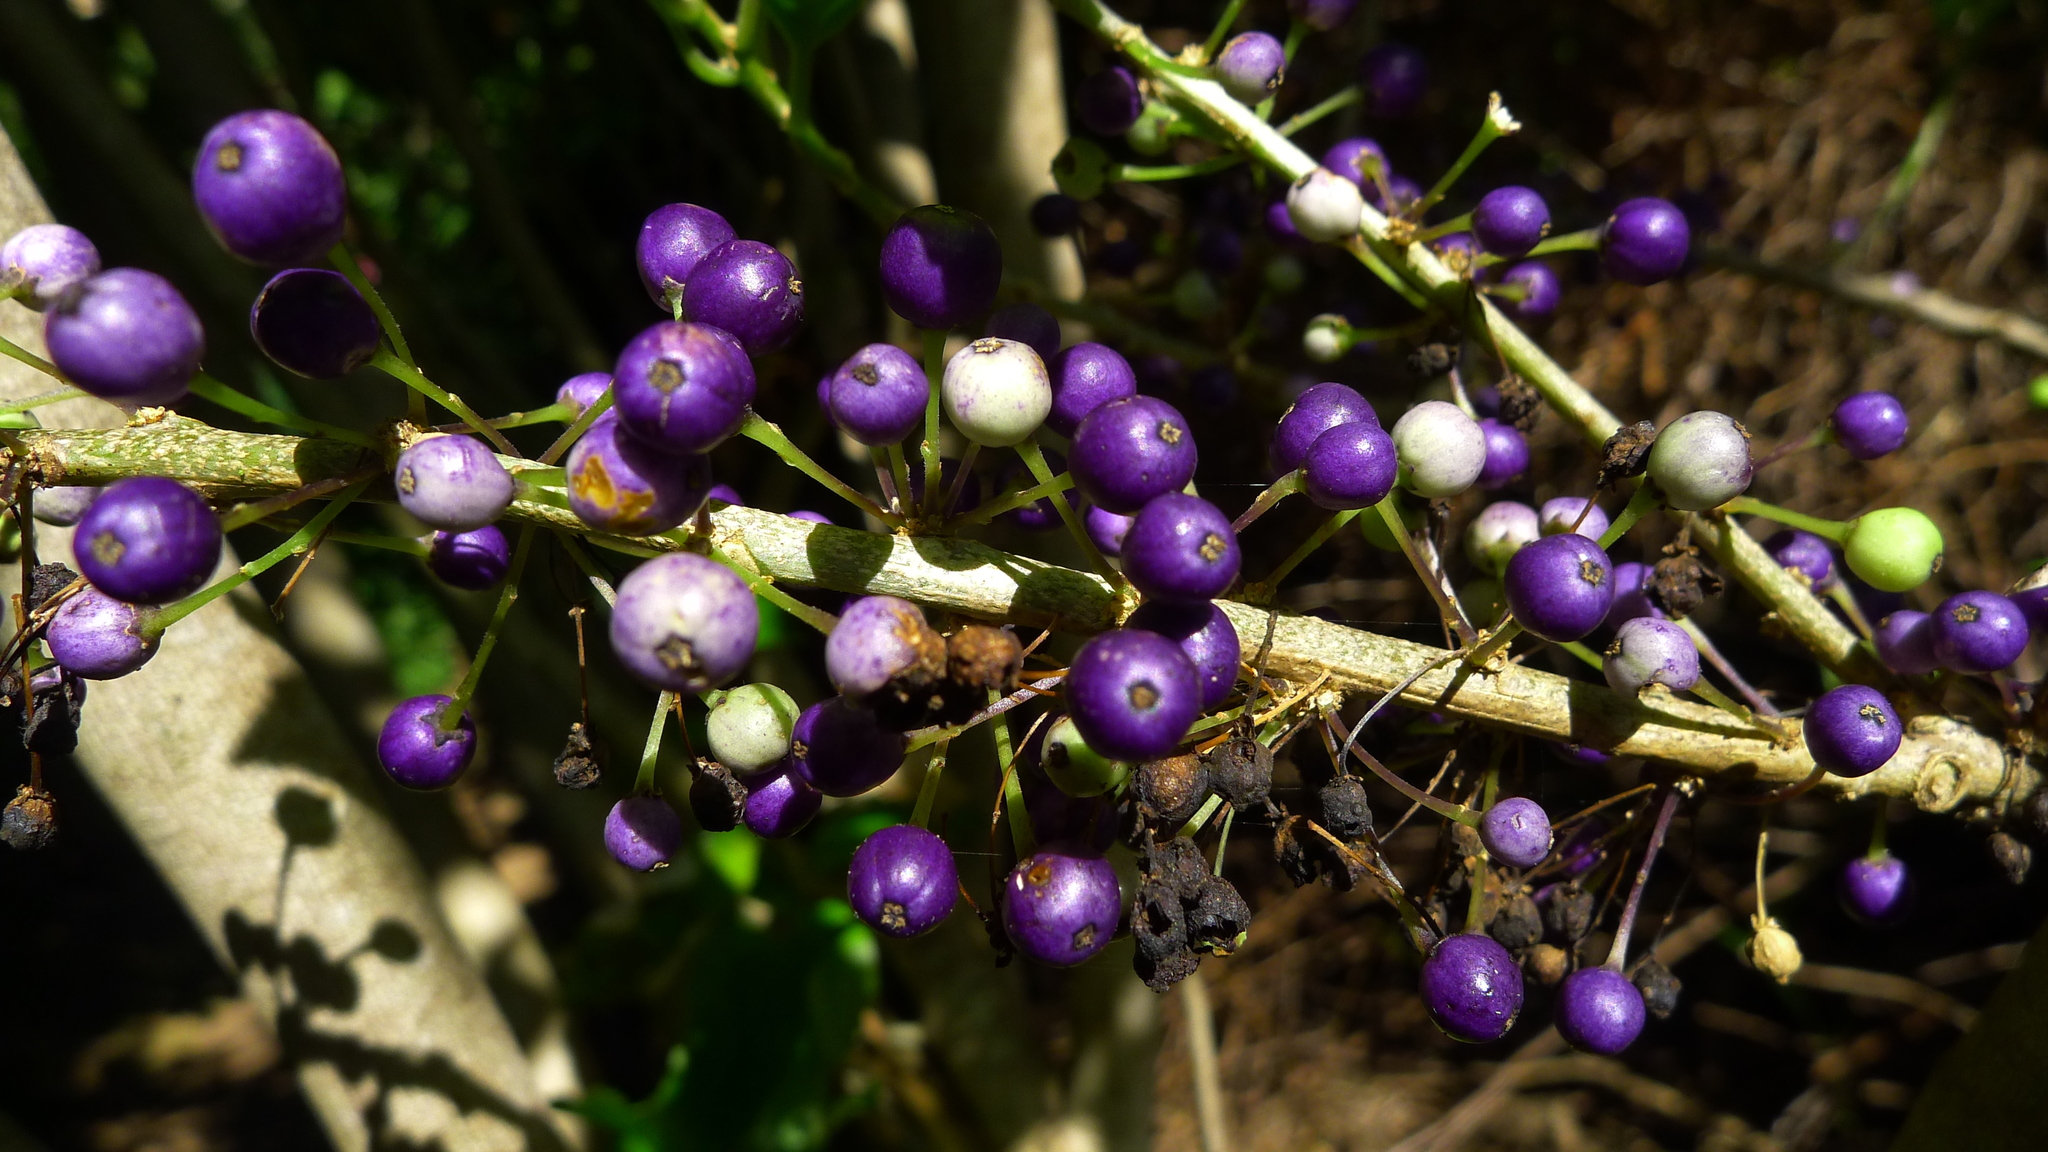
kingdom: Plantae
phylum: Tracheophyta
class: Magnoliopsida
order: Malpighiales
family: Violaceae
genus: Melicytus
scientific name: Melicytus ramiflorus
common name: Mahoe
